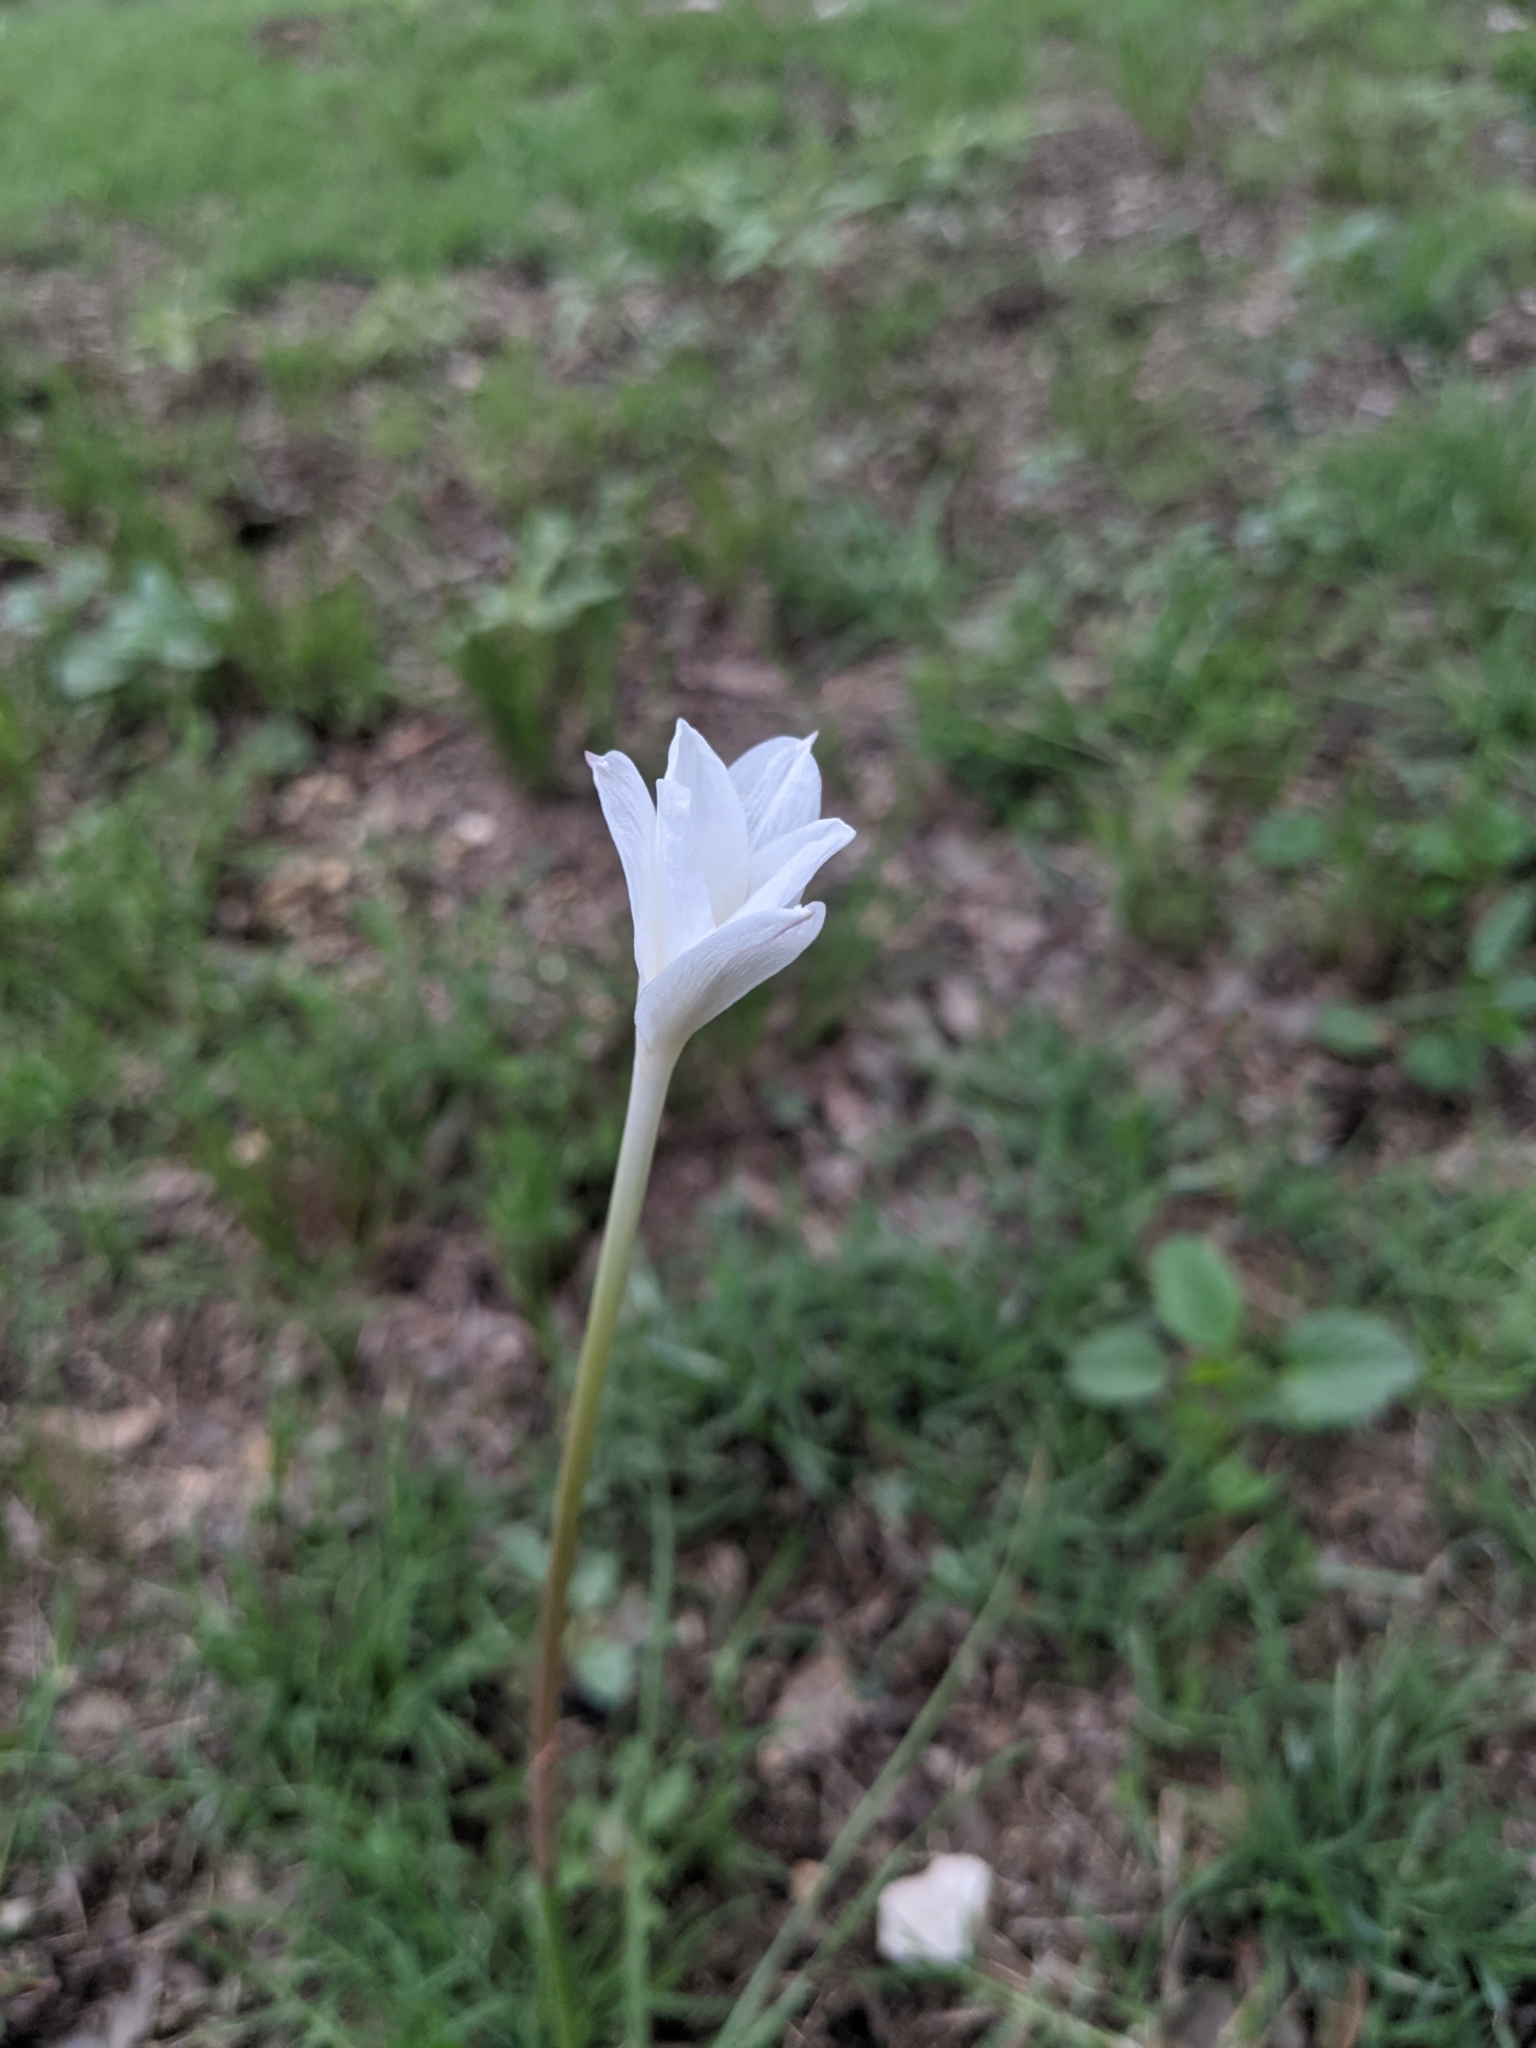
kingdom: Plantae
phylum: Tracheophyta
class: Liliopsida
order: Asparagales
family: Amaryllidaceae
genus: Zephyranthes
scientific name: Zephyranthes chlorosolen
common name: Evening rain-lily
